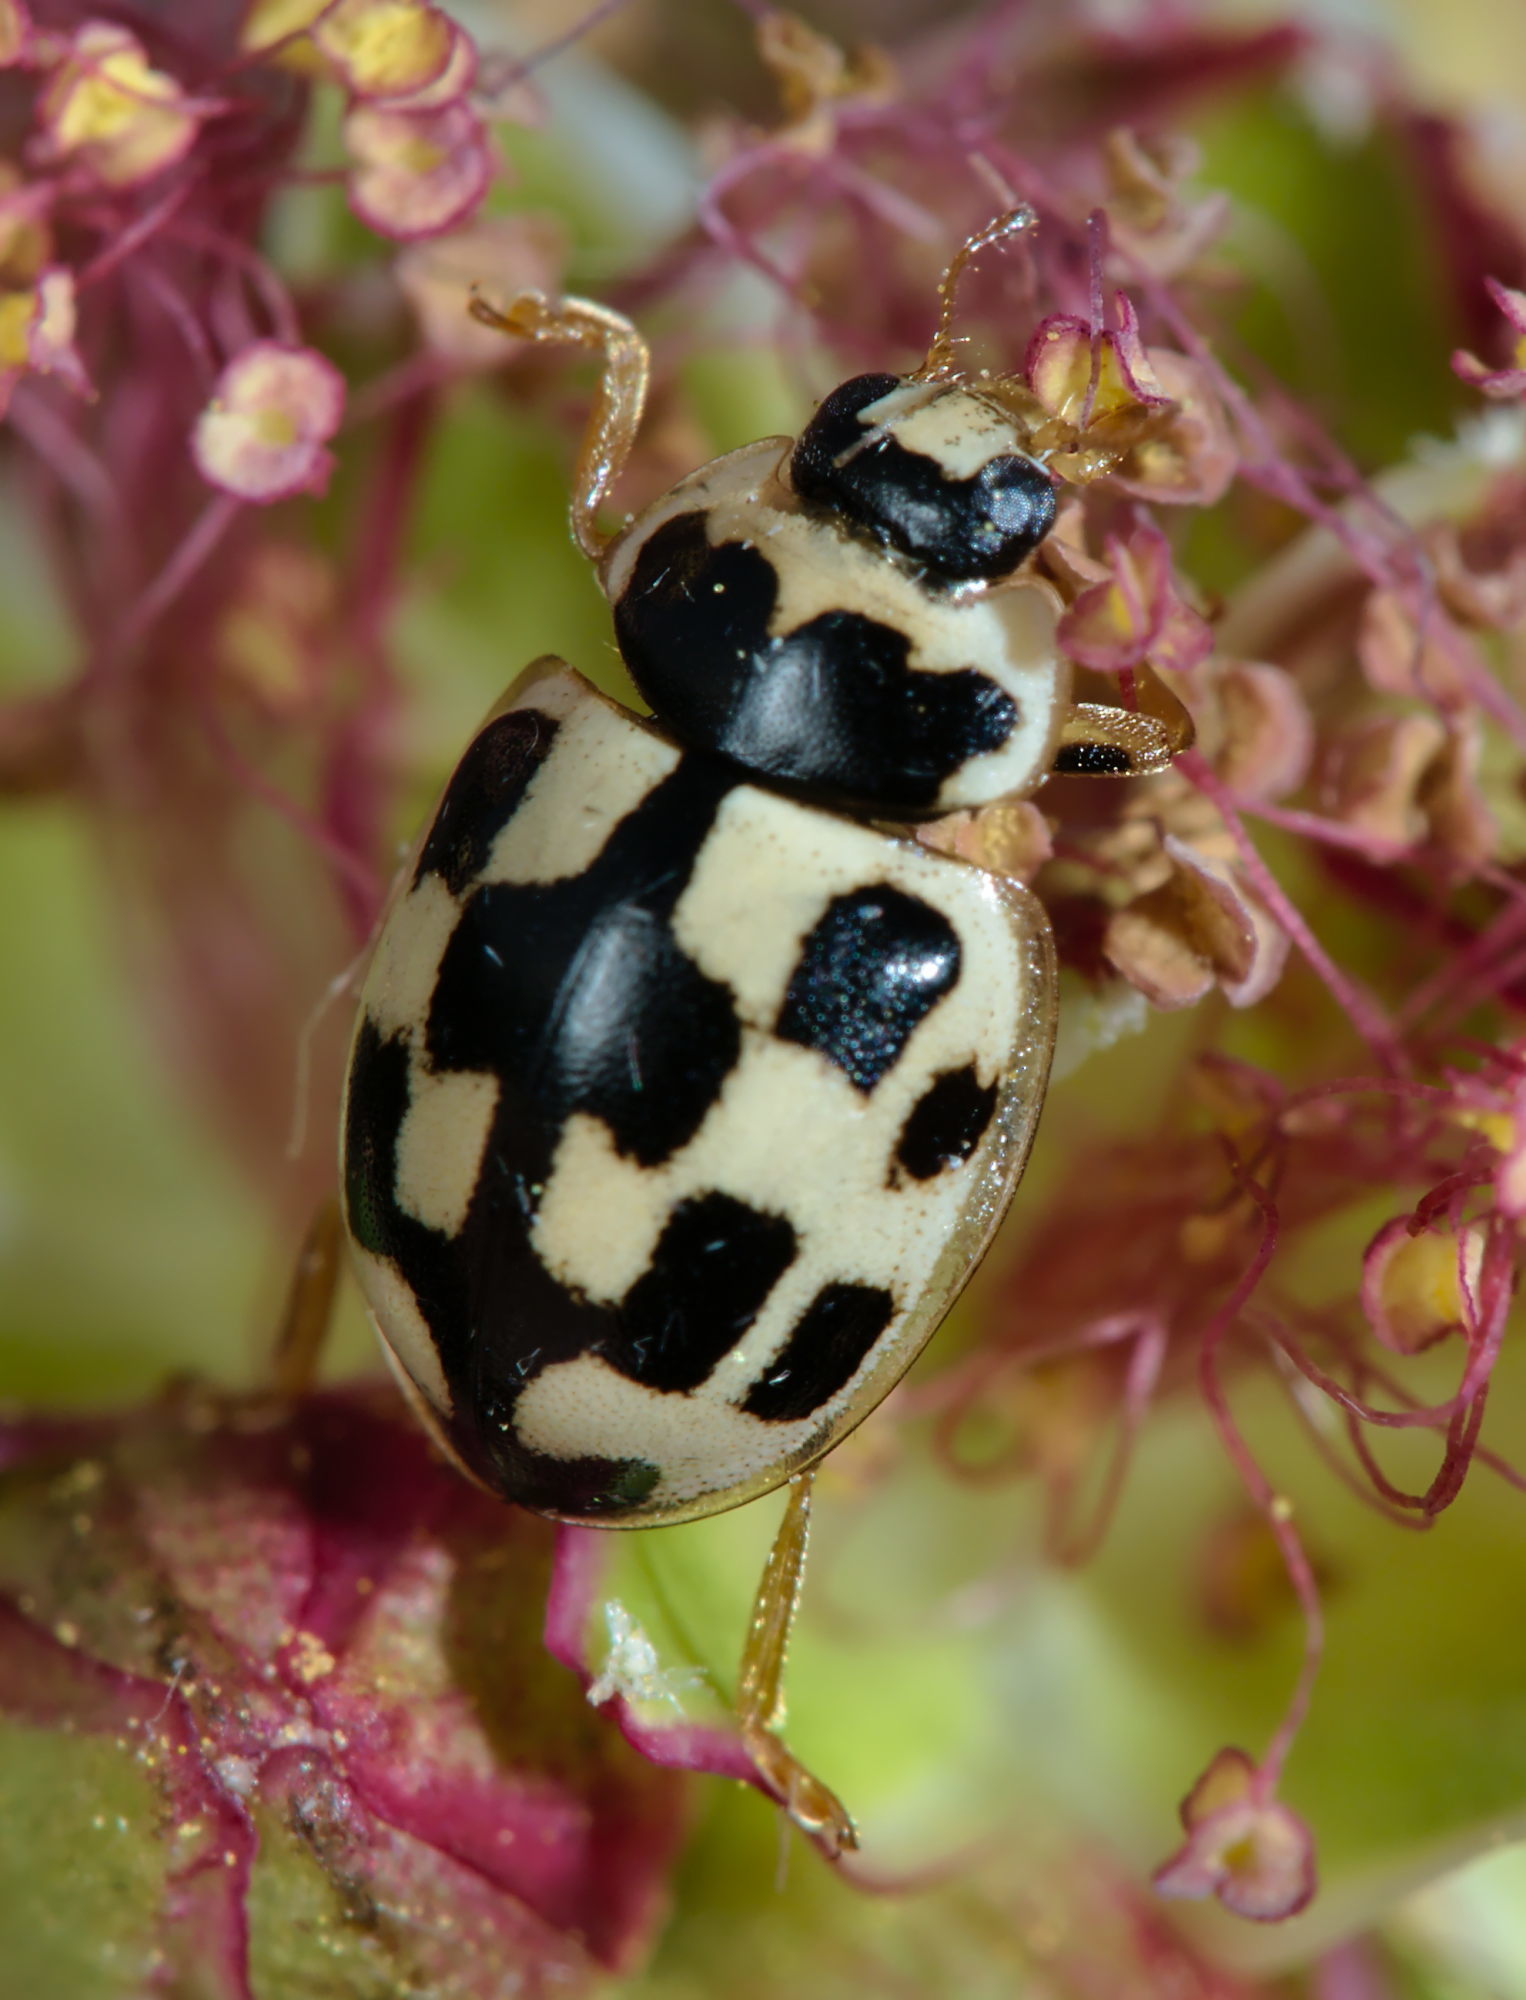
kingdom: Animalia
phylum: Arthropoda
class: Insecta
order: Coleoptera
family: Coccinellidae
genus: Propylaea
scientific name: Propylaea quatuordecimpunctata
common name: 14-spotted ladybird beetle
